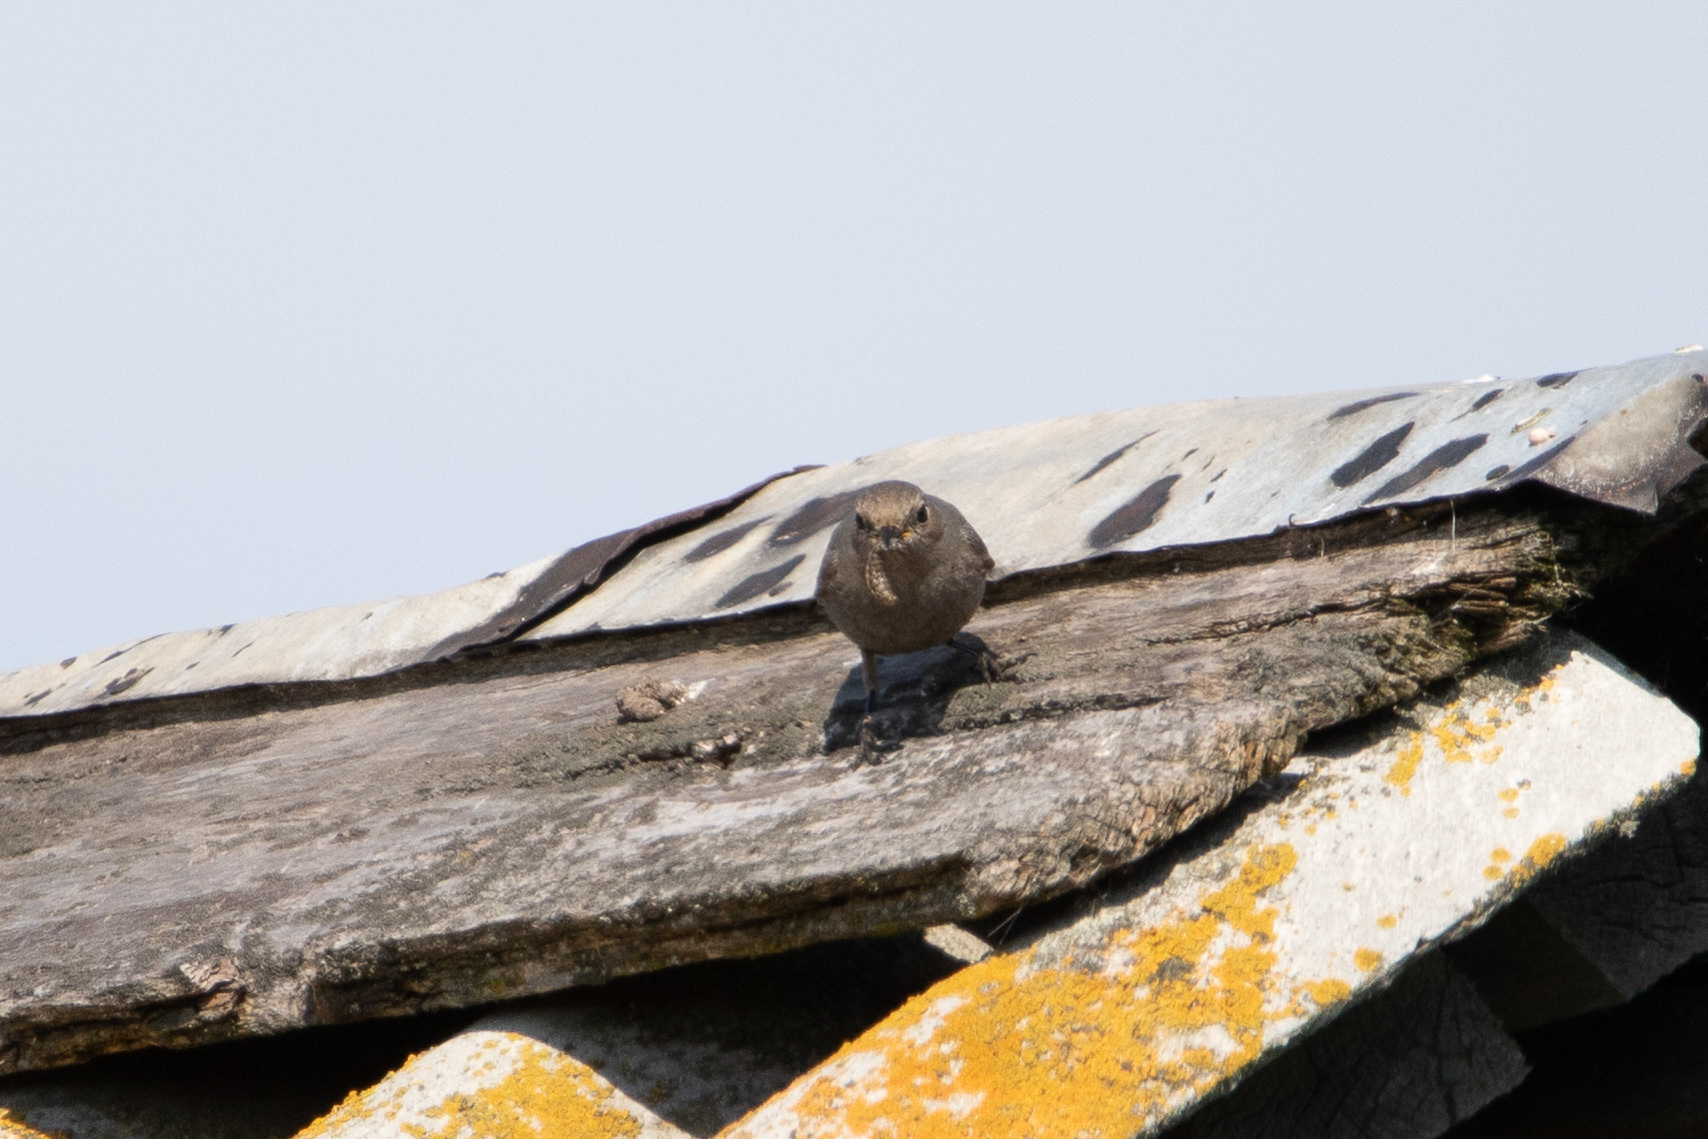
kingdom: Animalia
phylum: Chordata
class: Aves
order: Passeriformes
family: Muscicapidae
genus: Phoenicurus
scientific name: Phoenicurus ochruros
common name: Black redstart
